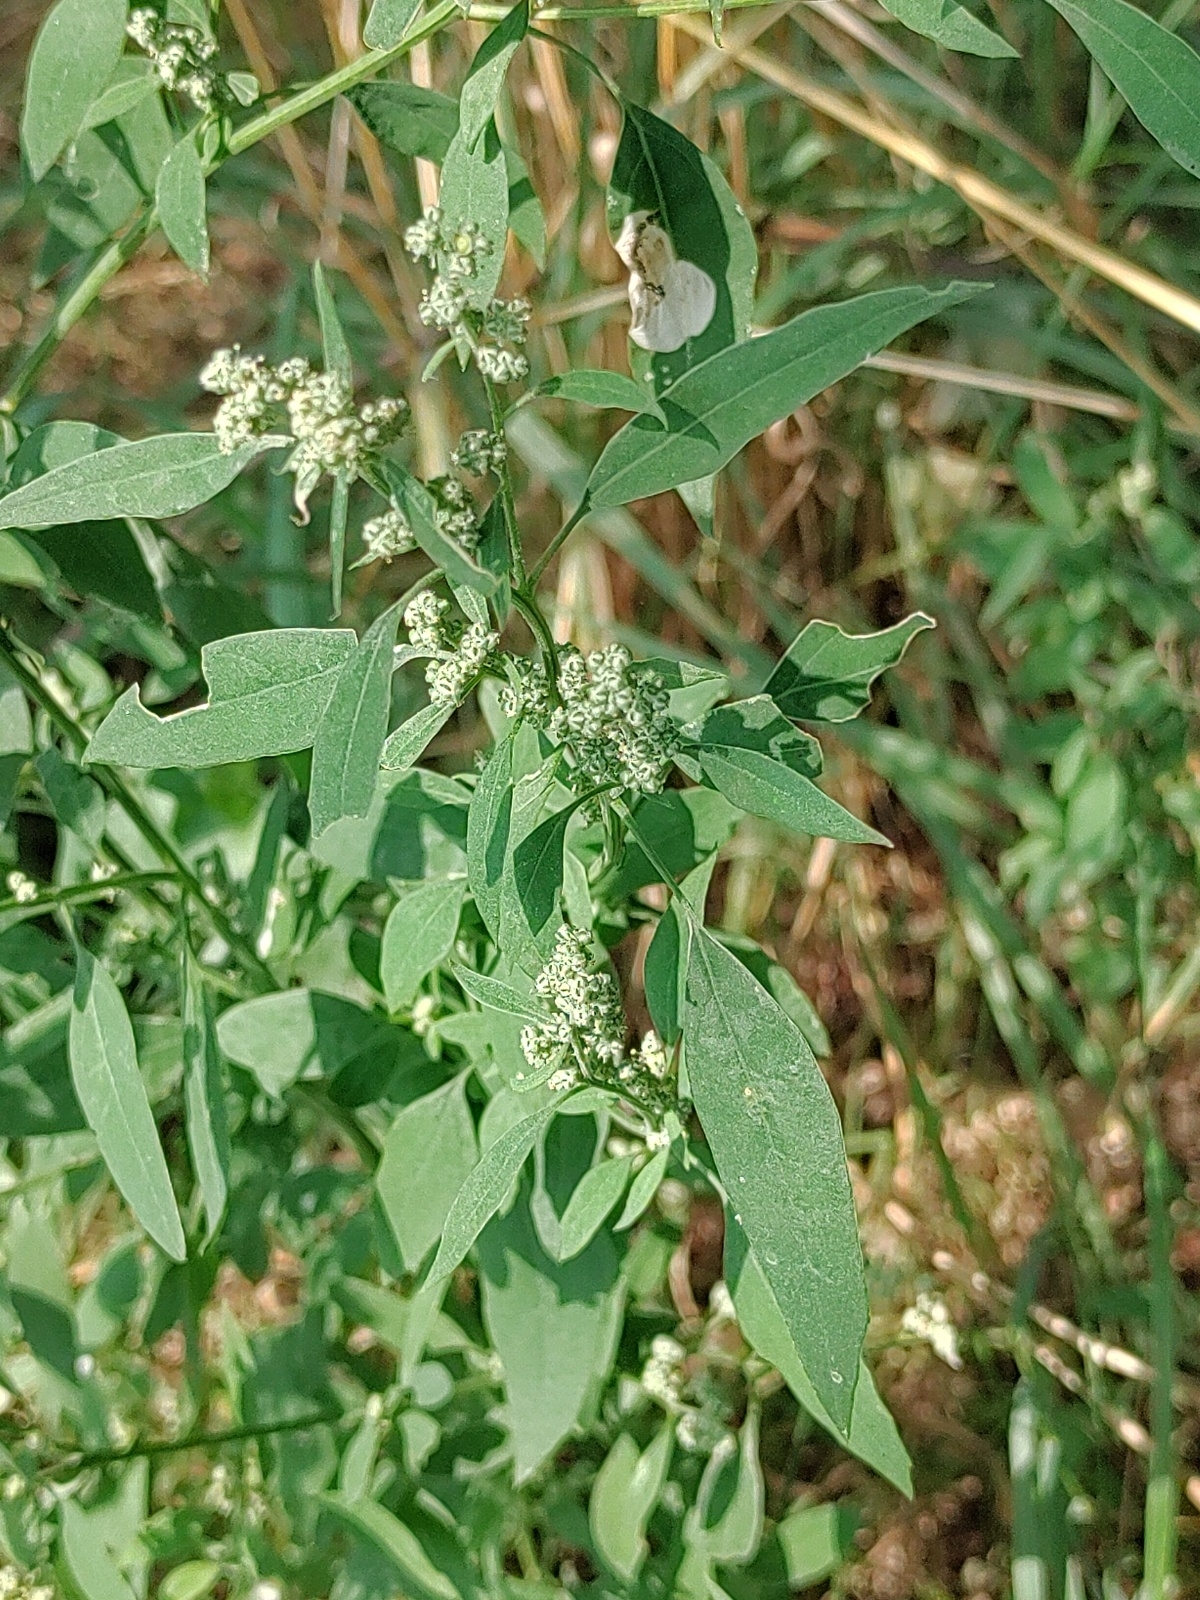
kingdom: Plantae
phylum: Tracheophyta
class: Magnoliopsida
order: Caryophyllales
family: Amaranthaceae
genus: Chenopodium
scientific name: Chenopodium album
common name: Fat-hen
